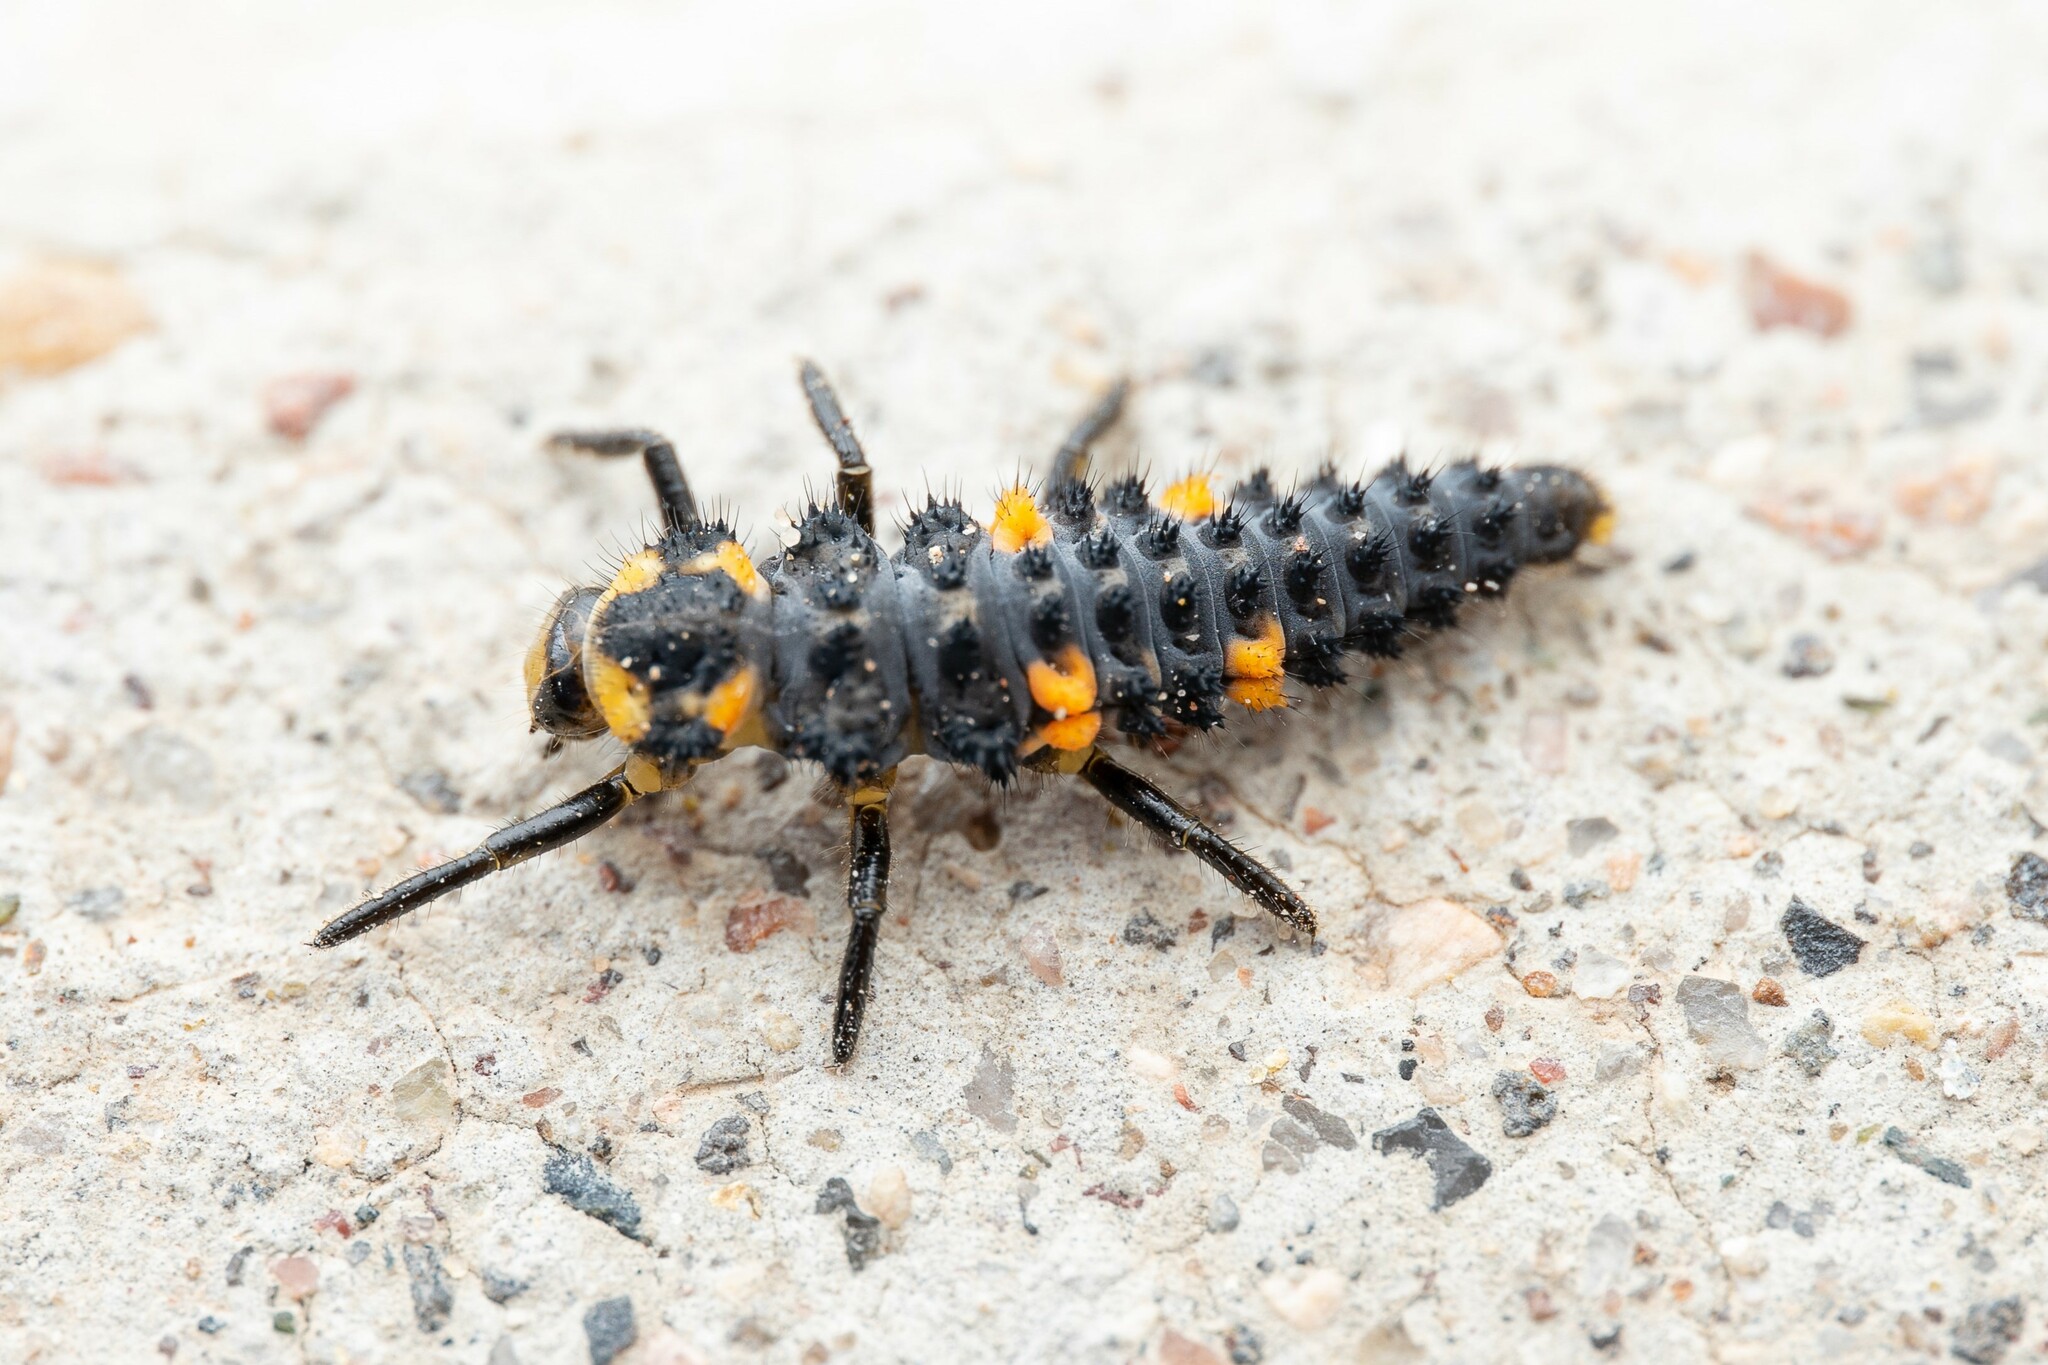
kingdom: Animalia
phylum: Arthropoda
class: Insecta
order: Coleoptera
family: Coccinellidae
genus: Coccinella
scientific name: Coccinella septempunctata
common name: Sevenspotted lady beetle
